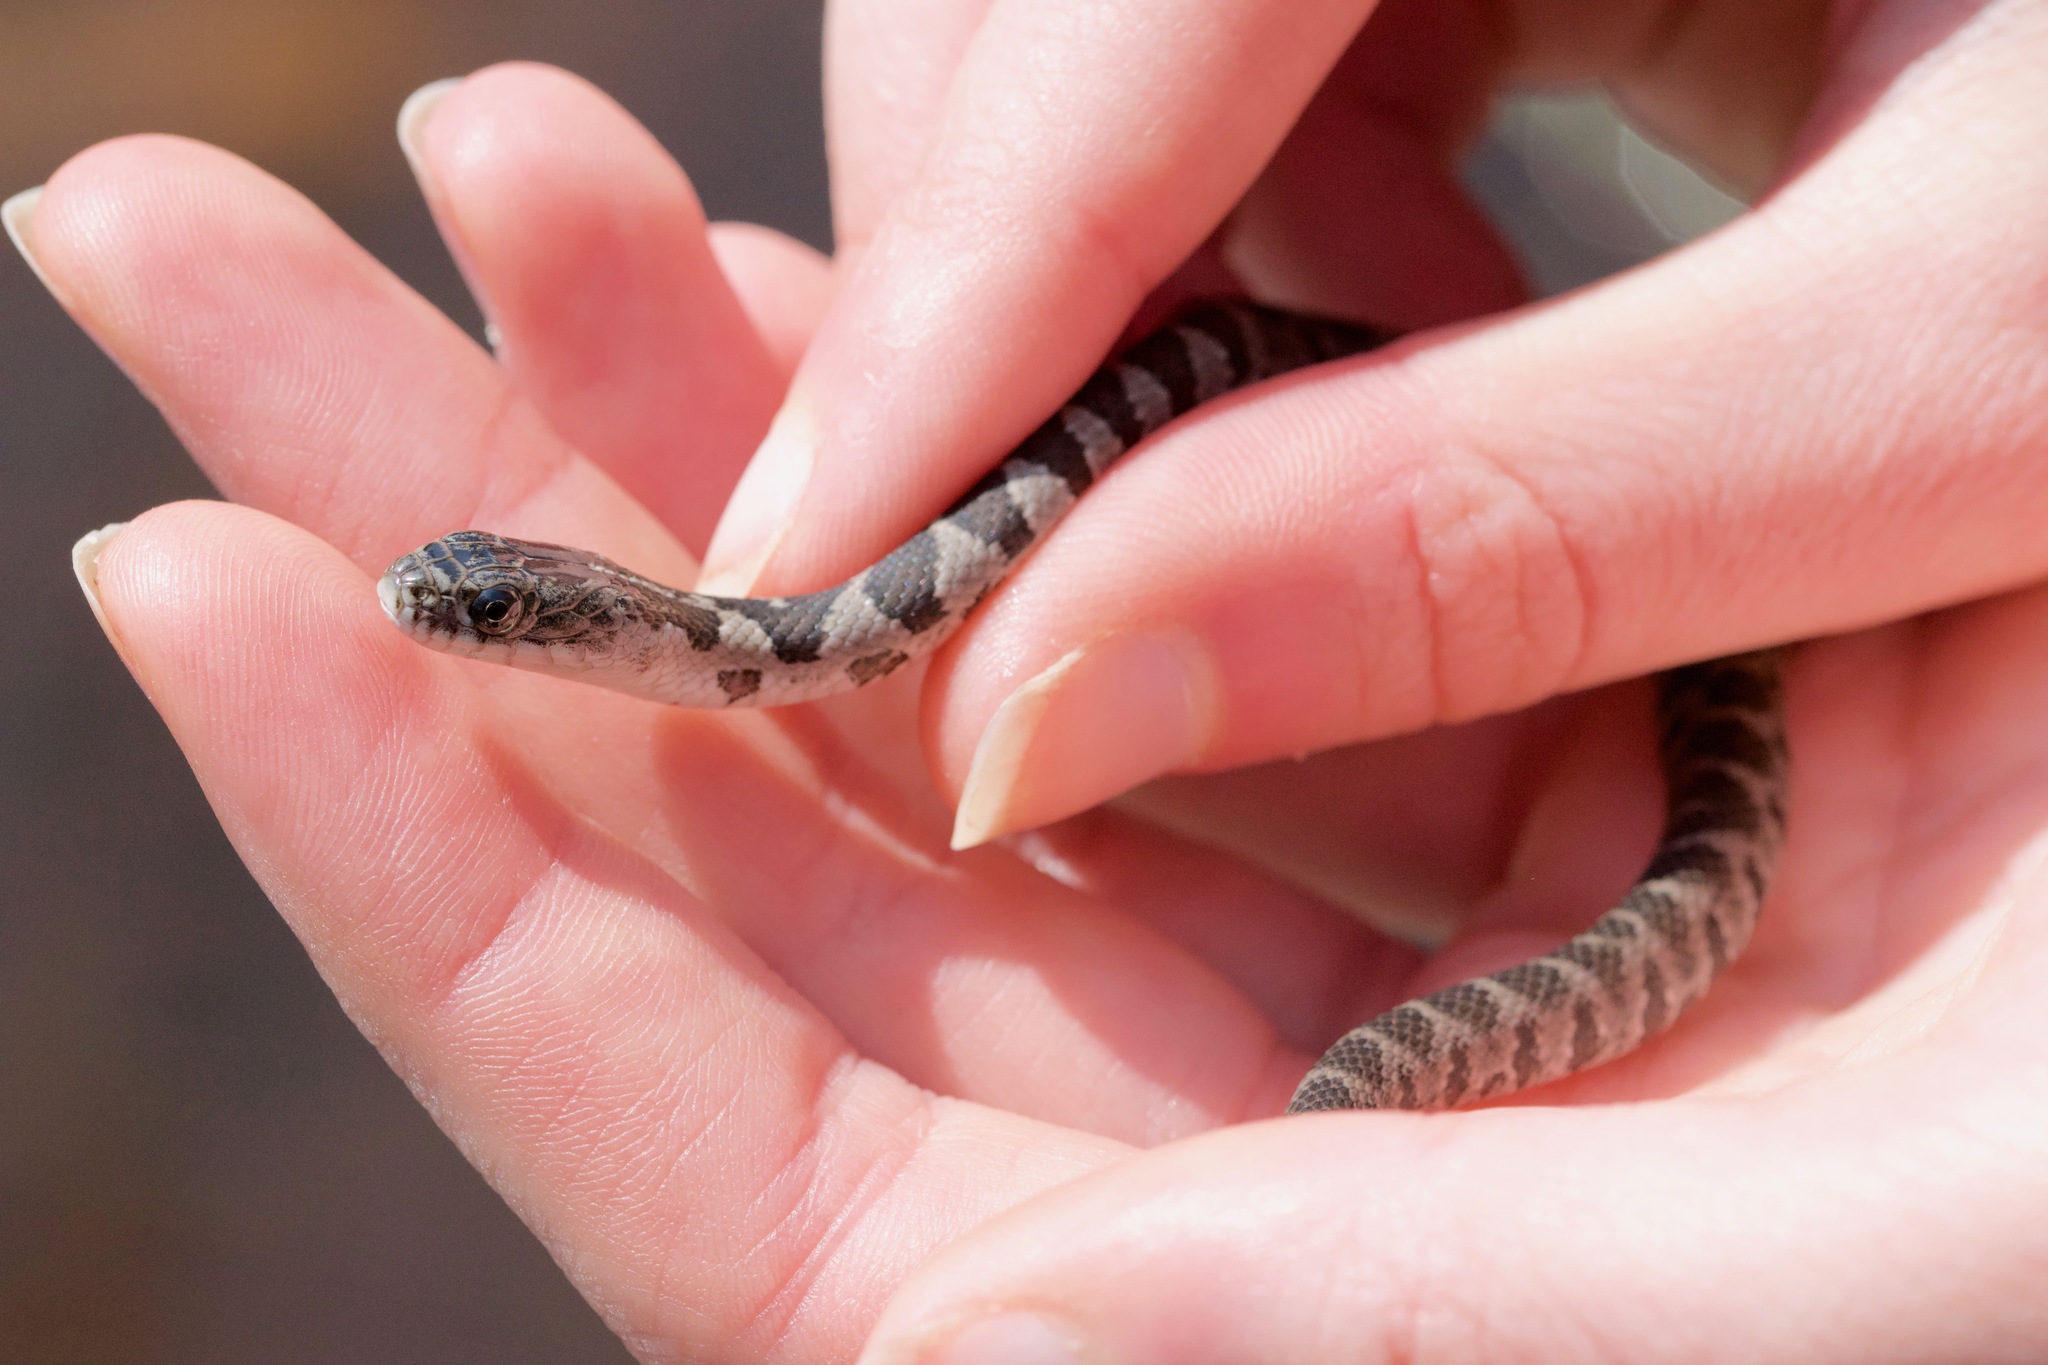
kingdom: Animalia
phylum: Chordata
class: Squamata
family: Colubridae
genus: Nerodia
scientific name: Nerodia sipedon
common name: Northern water snake
